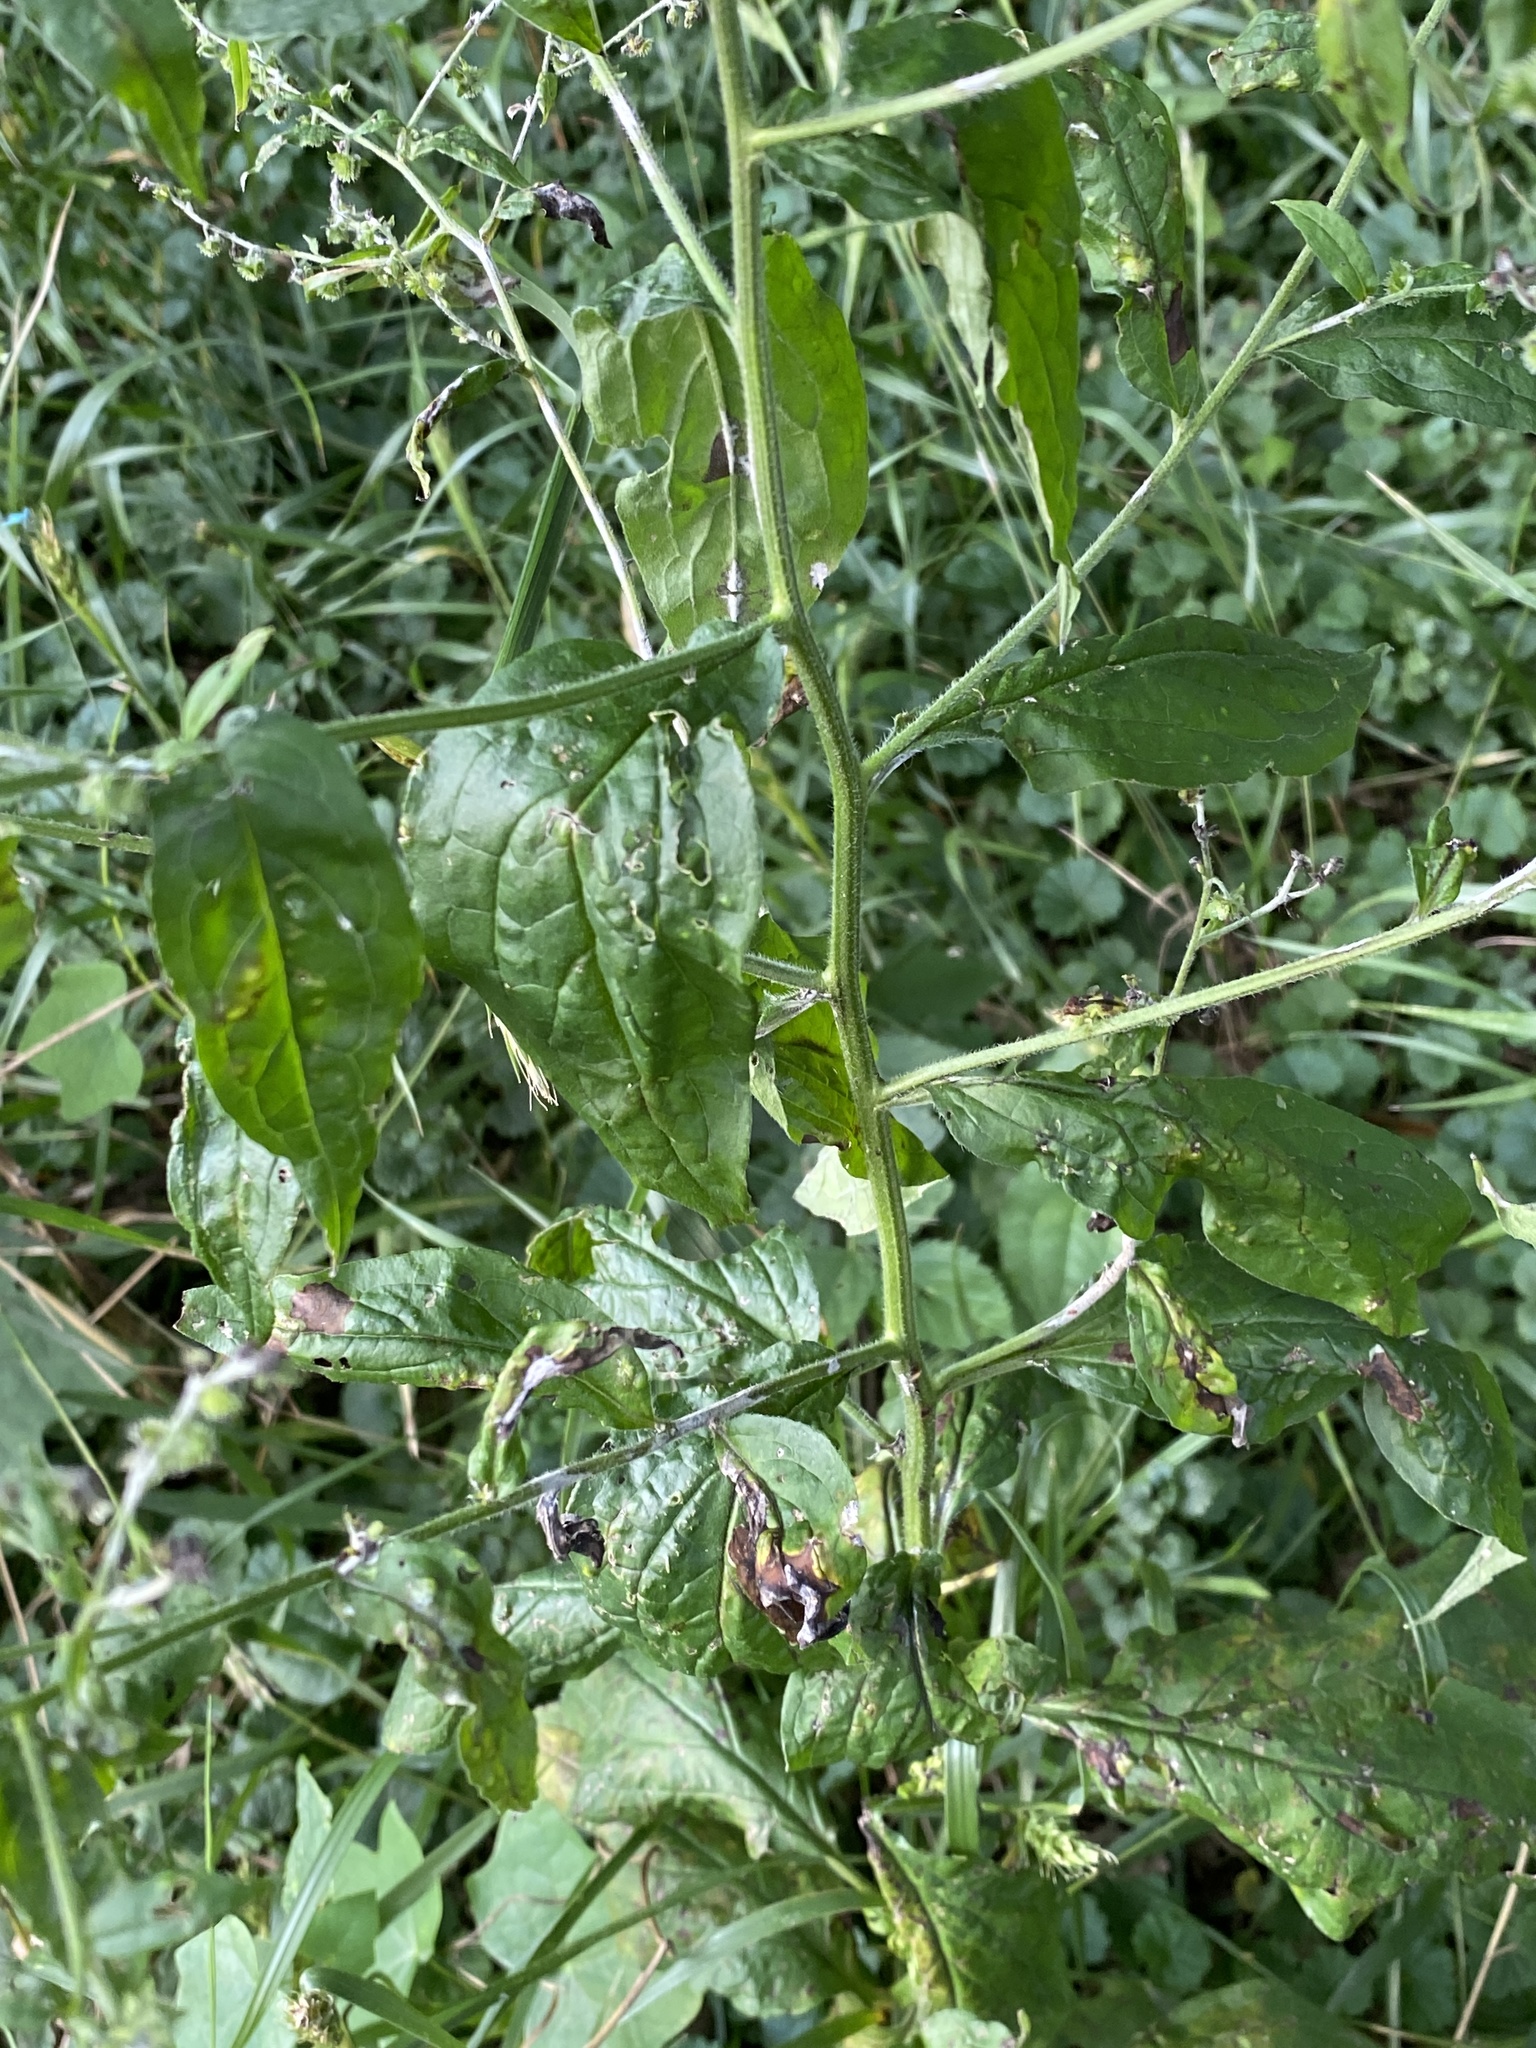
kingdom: Plantae
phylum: Tracheophyta
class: Magnoliopsida
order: Boraginales
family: Boraginaceae
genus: Hackelia
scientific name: Hackelia virginiana
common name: Beggar's-lice
